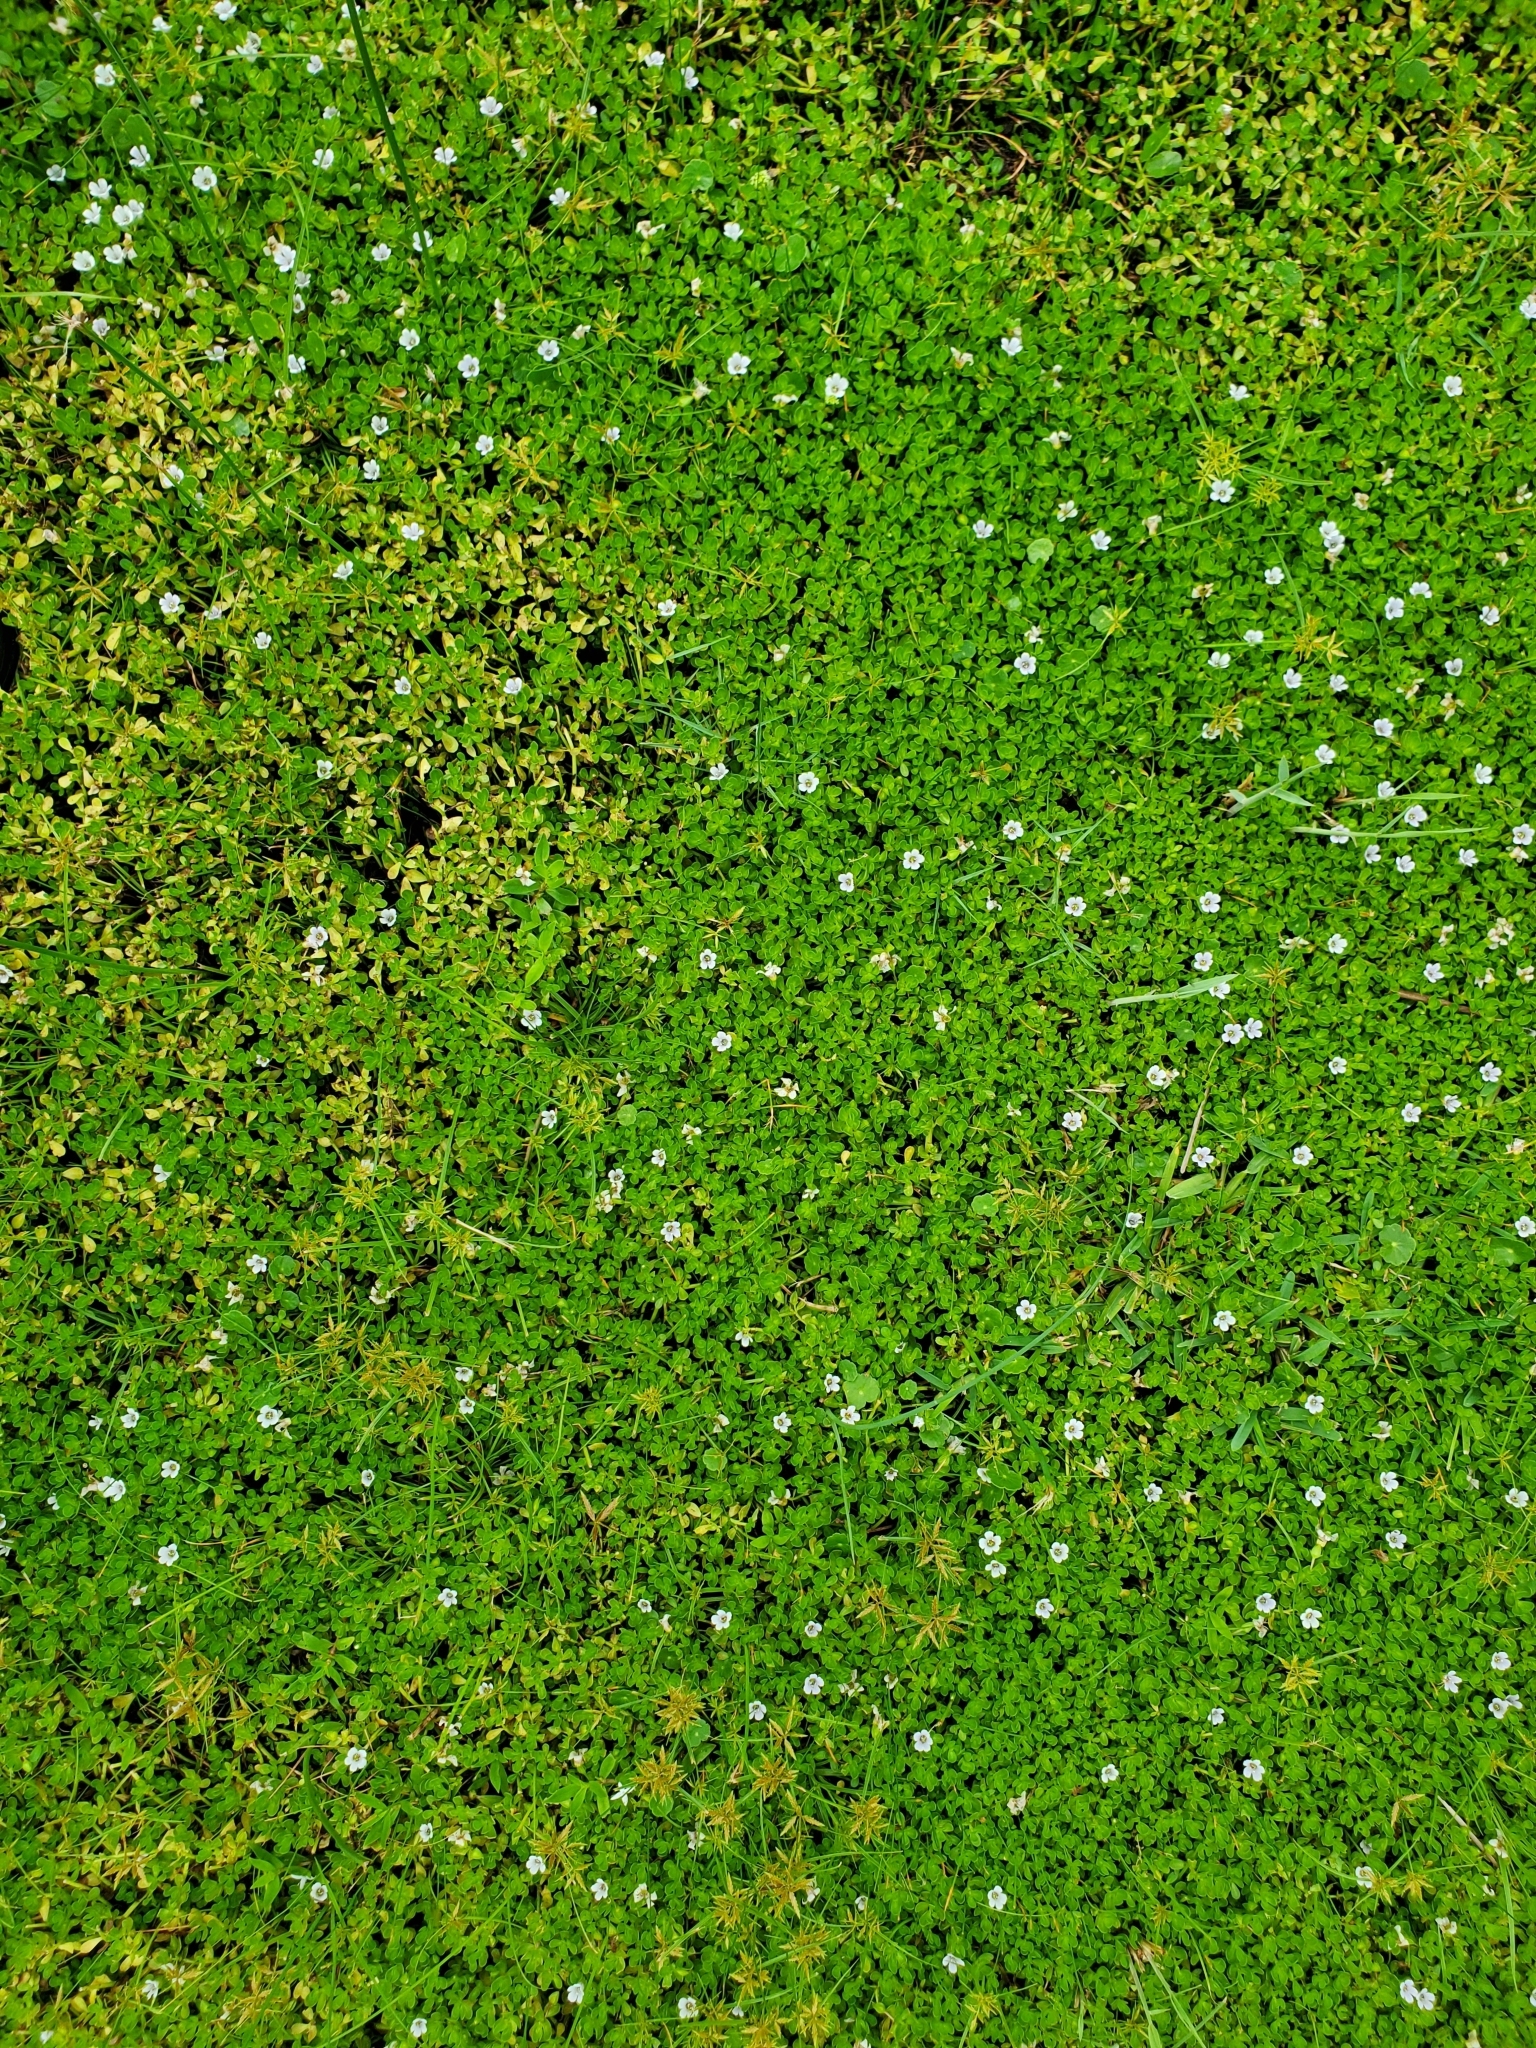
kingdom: Plantae
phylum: Tracheophyta
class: Magnoliopsida
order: Lamiales
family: Plantaginaceae
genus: Bacopa
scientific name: Bacopa monnieri
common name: Indian-pennywort
